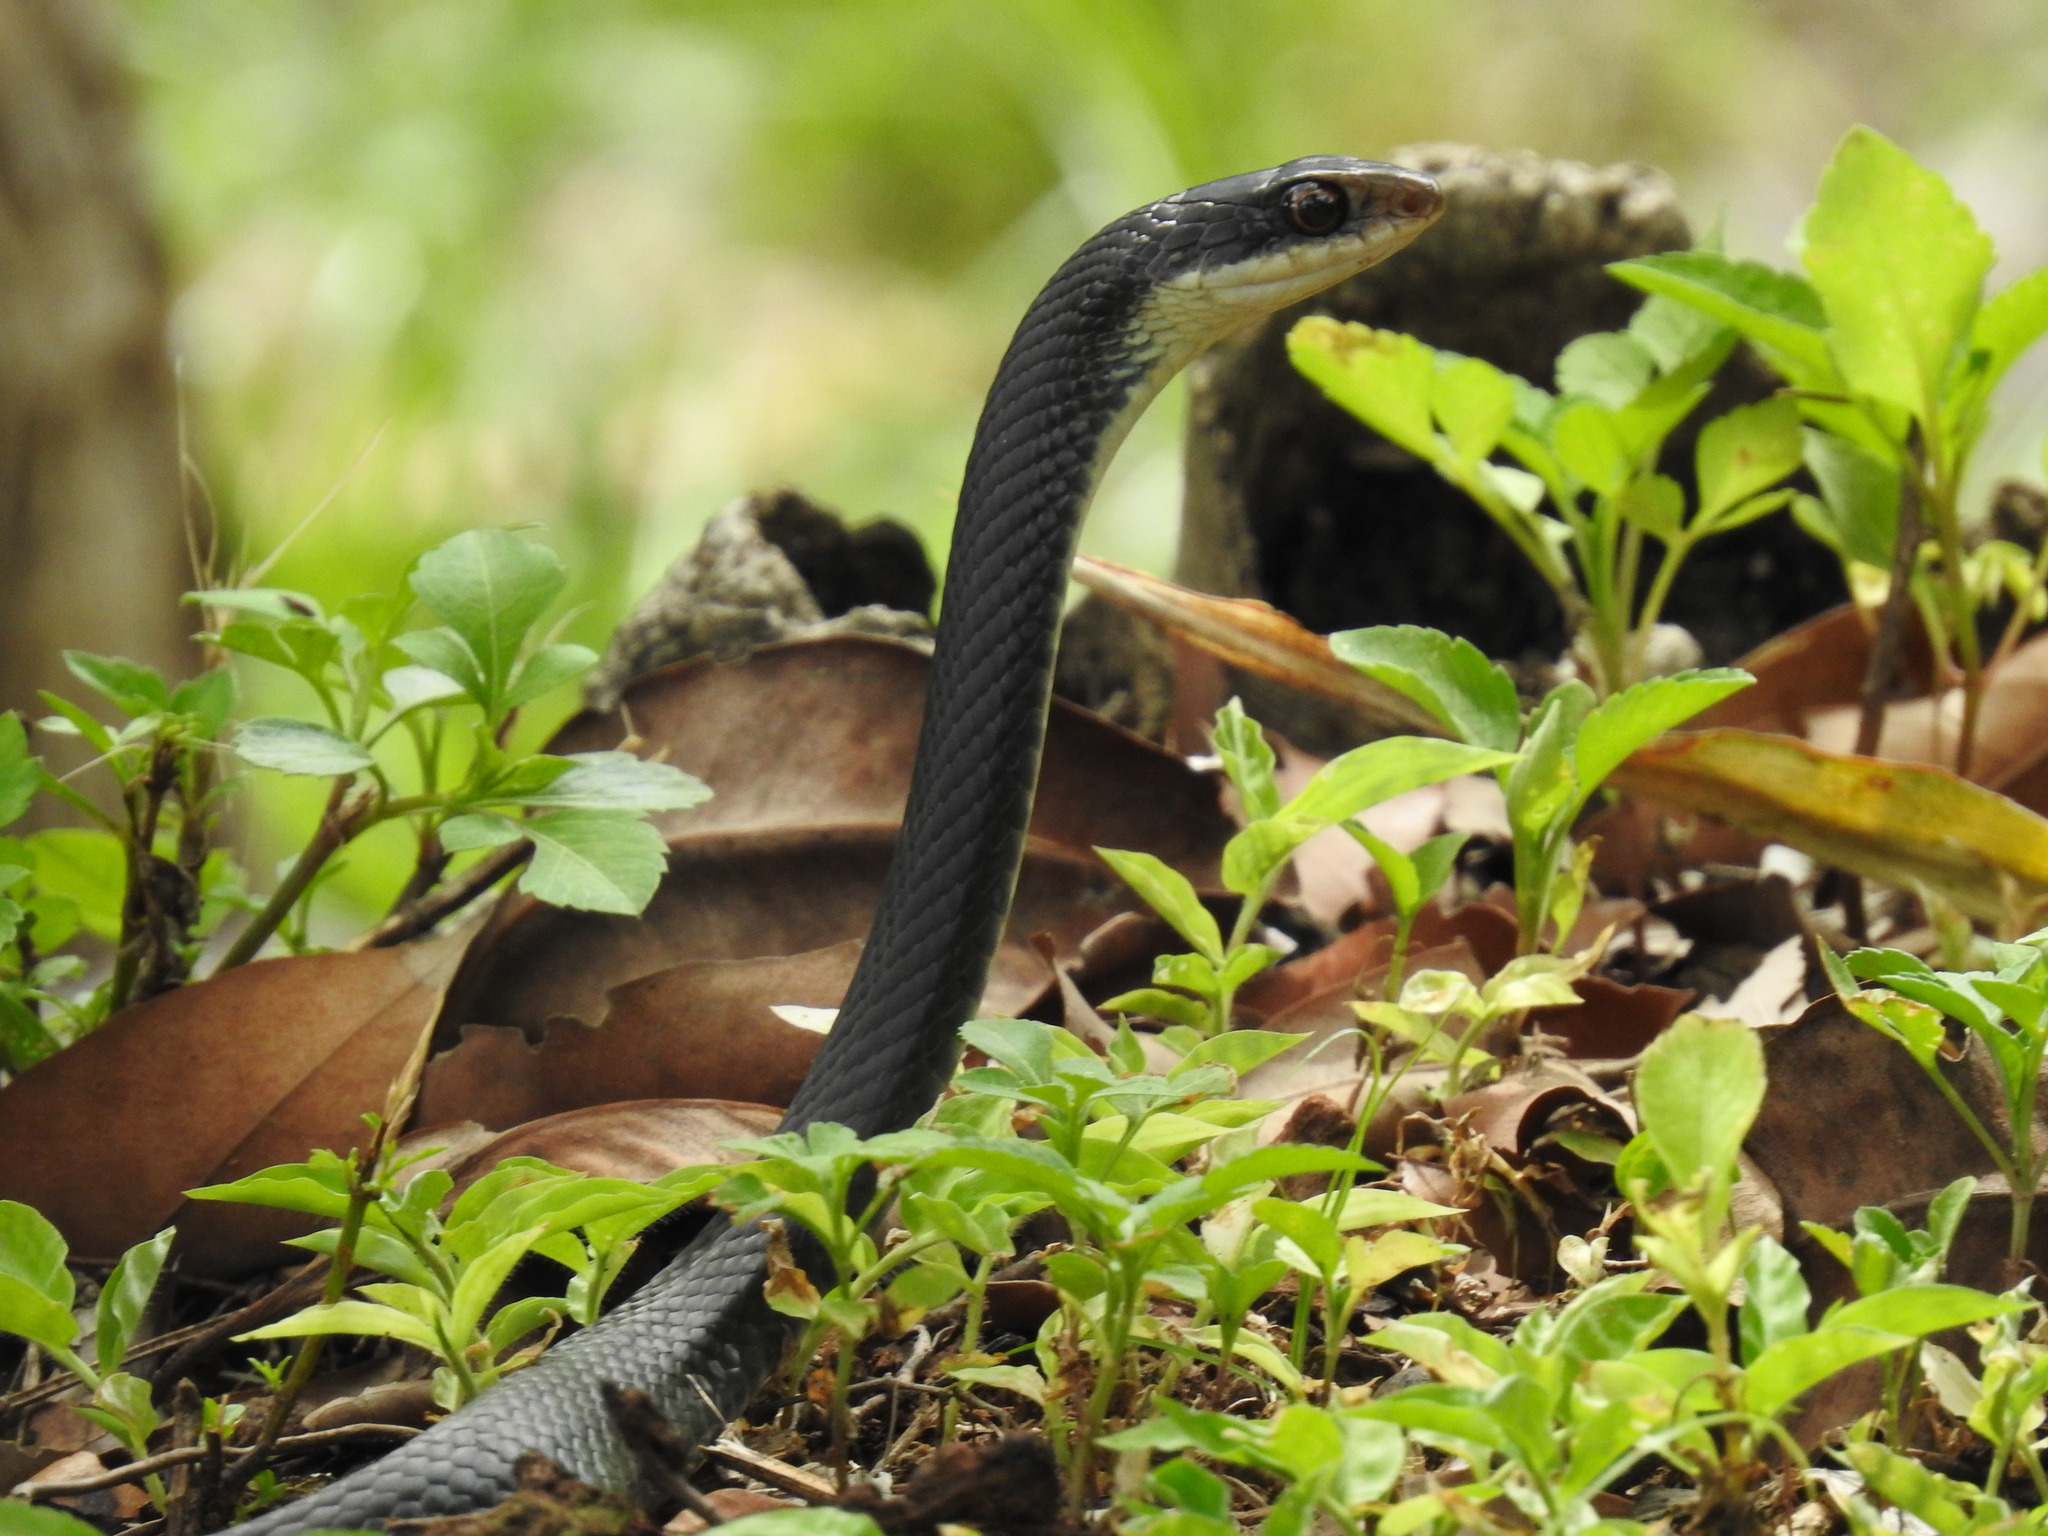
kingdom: Animalia
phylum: Chordata
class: Squamata
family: Colubridae
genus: Coluber
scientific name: Coluber constrictor
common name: Eastern racer
